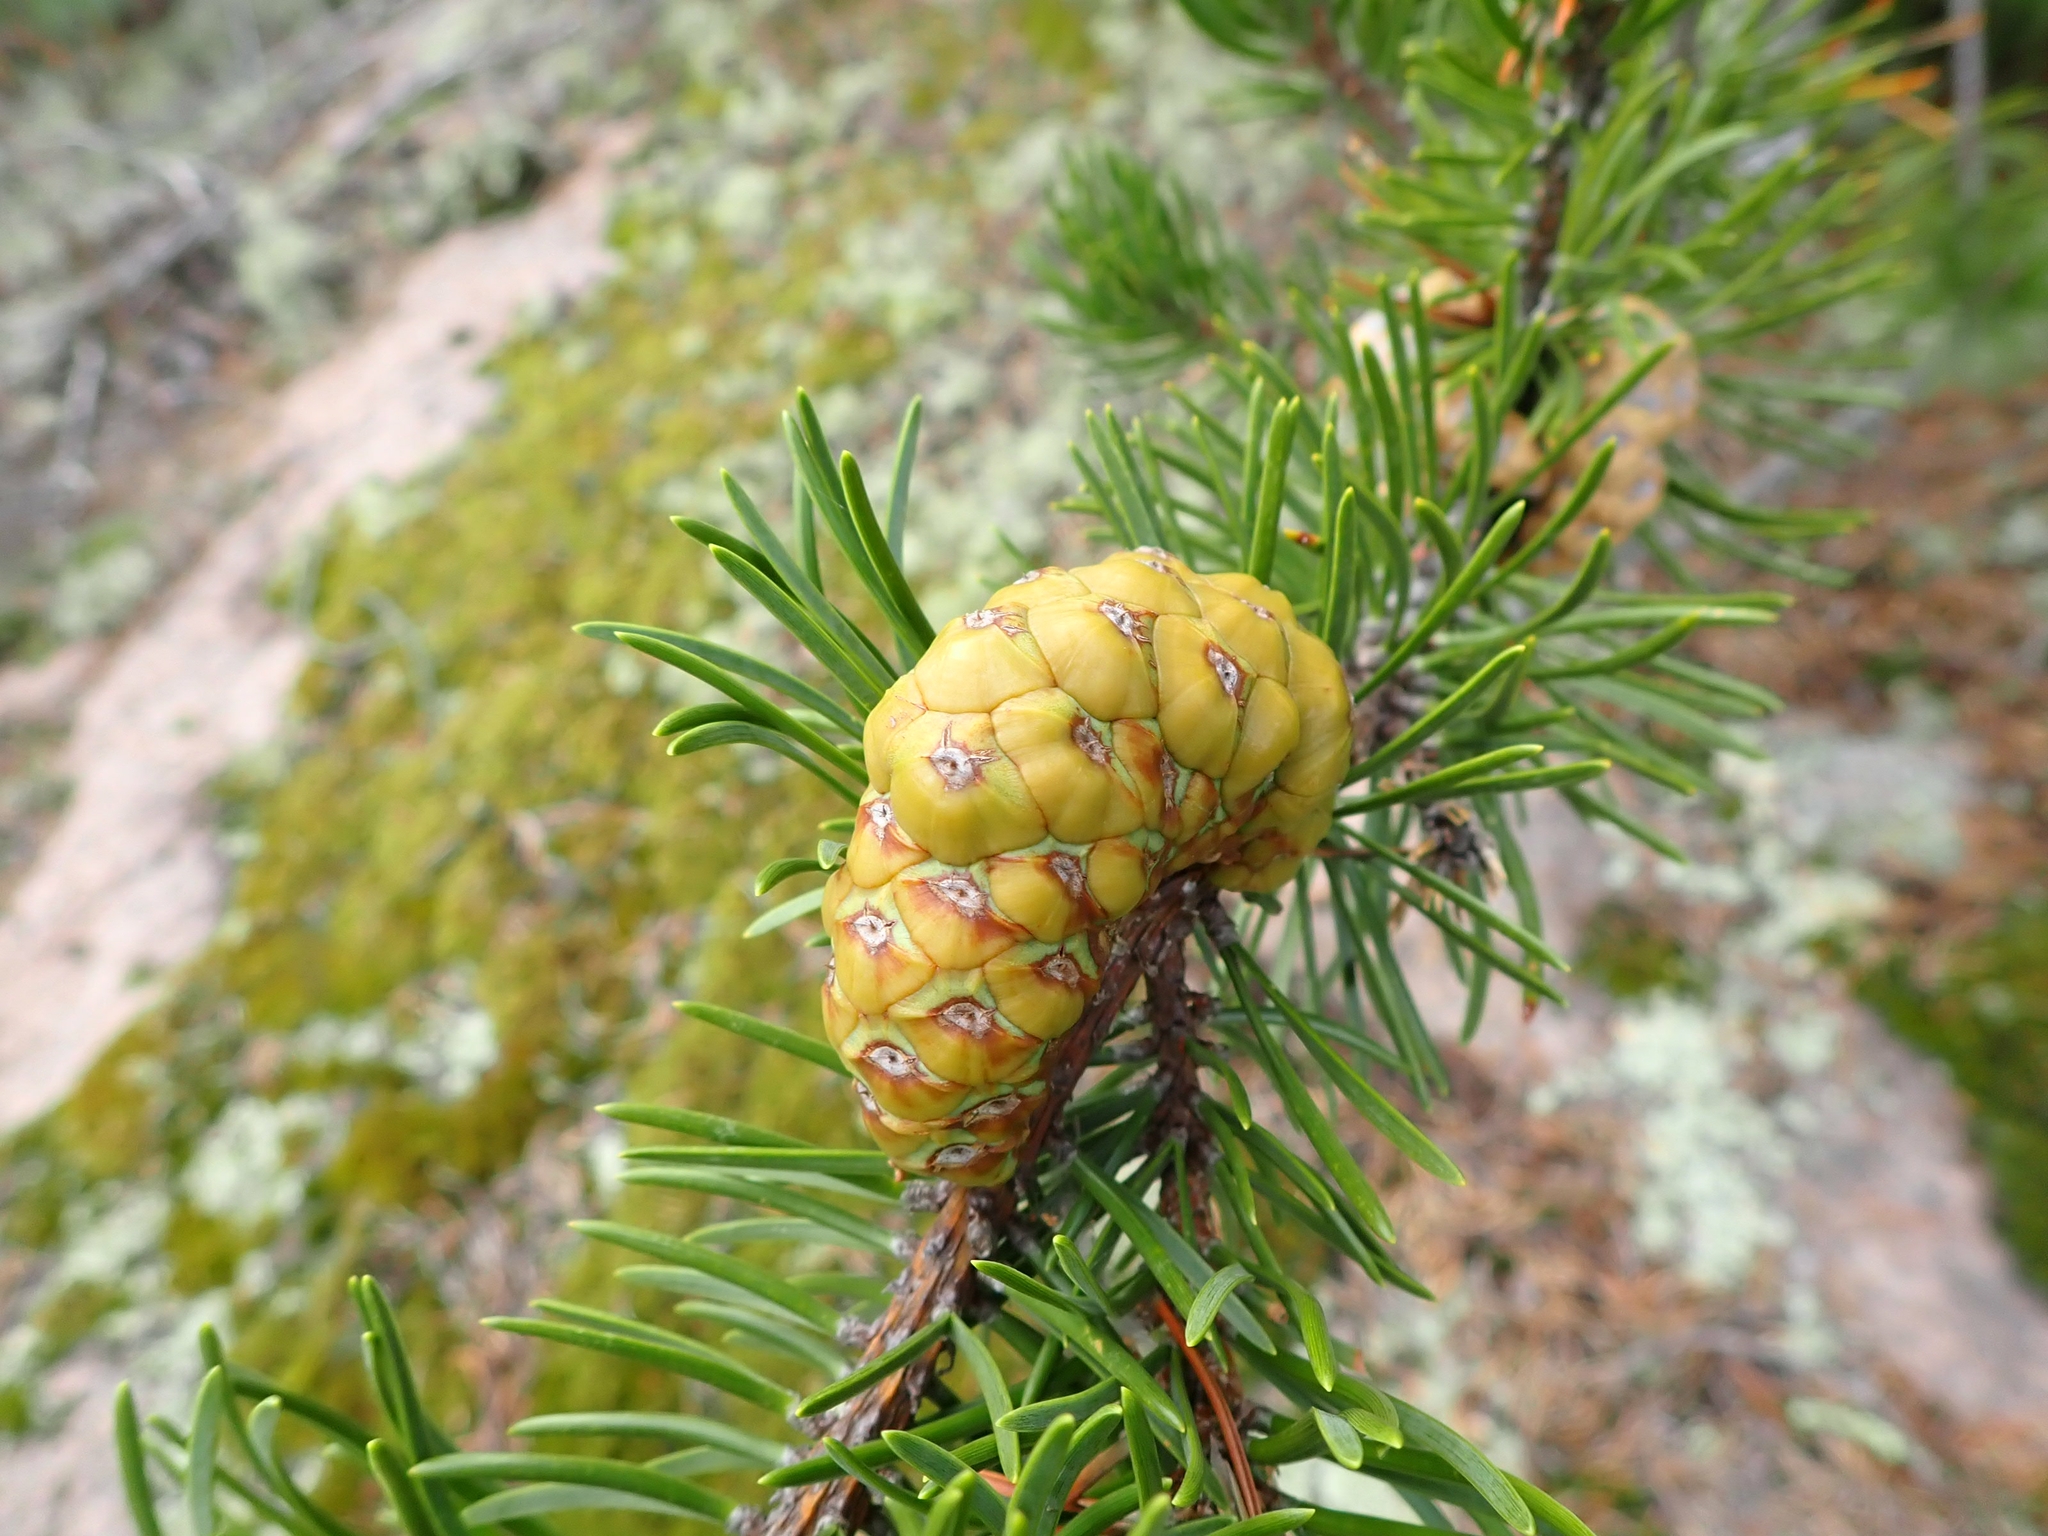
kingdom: Plantae
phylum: Tracheophyta
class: Pinopsida
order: Pinales
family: Pinaceae
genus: Pinus
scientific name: Pinus banksiana
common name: Jack pine
